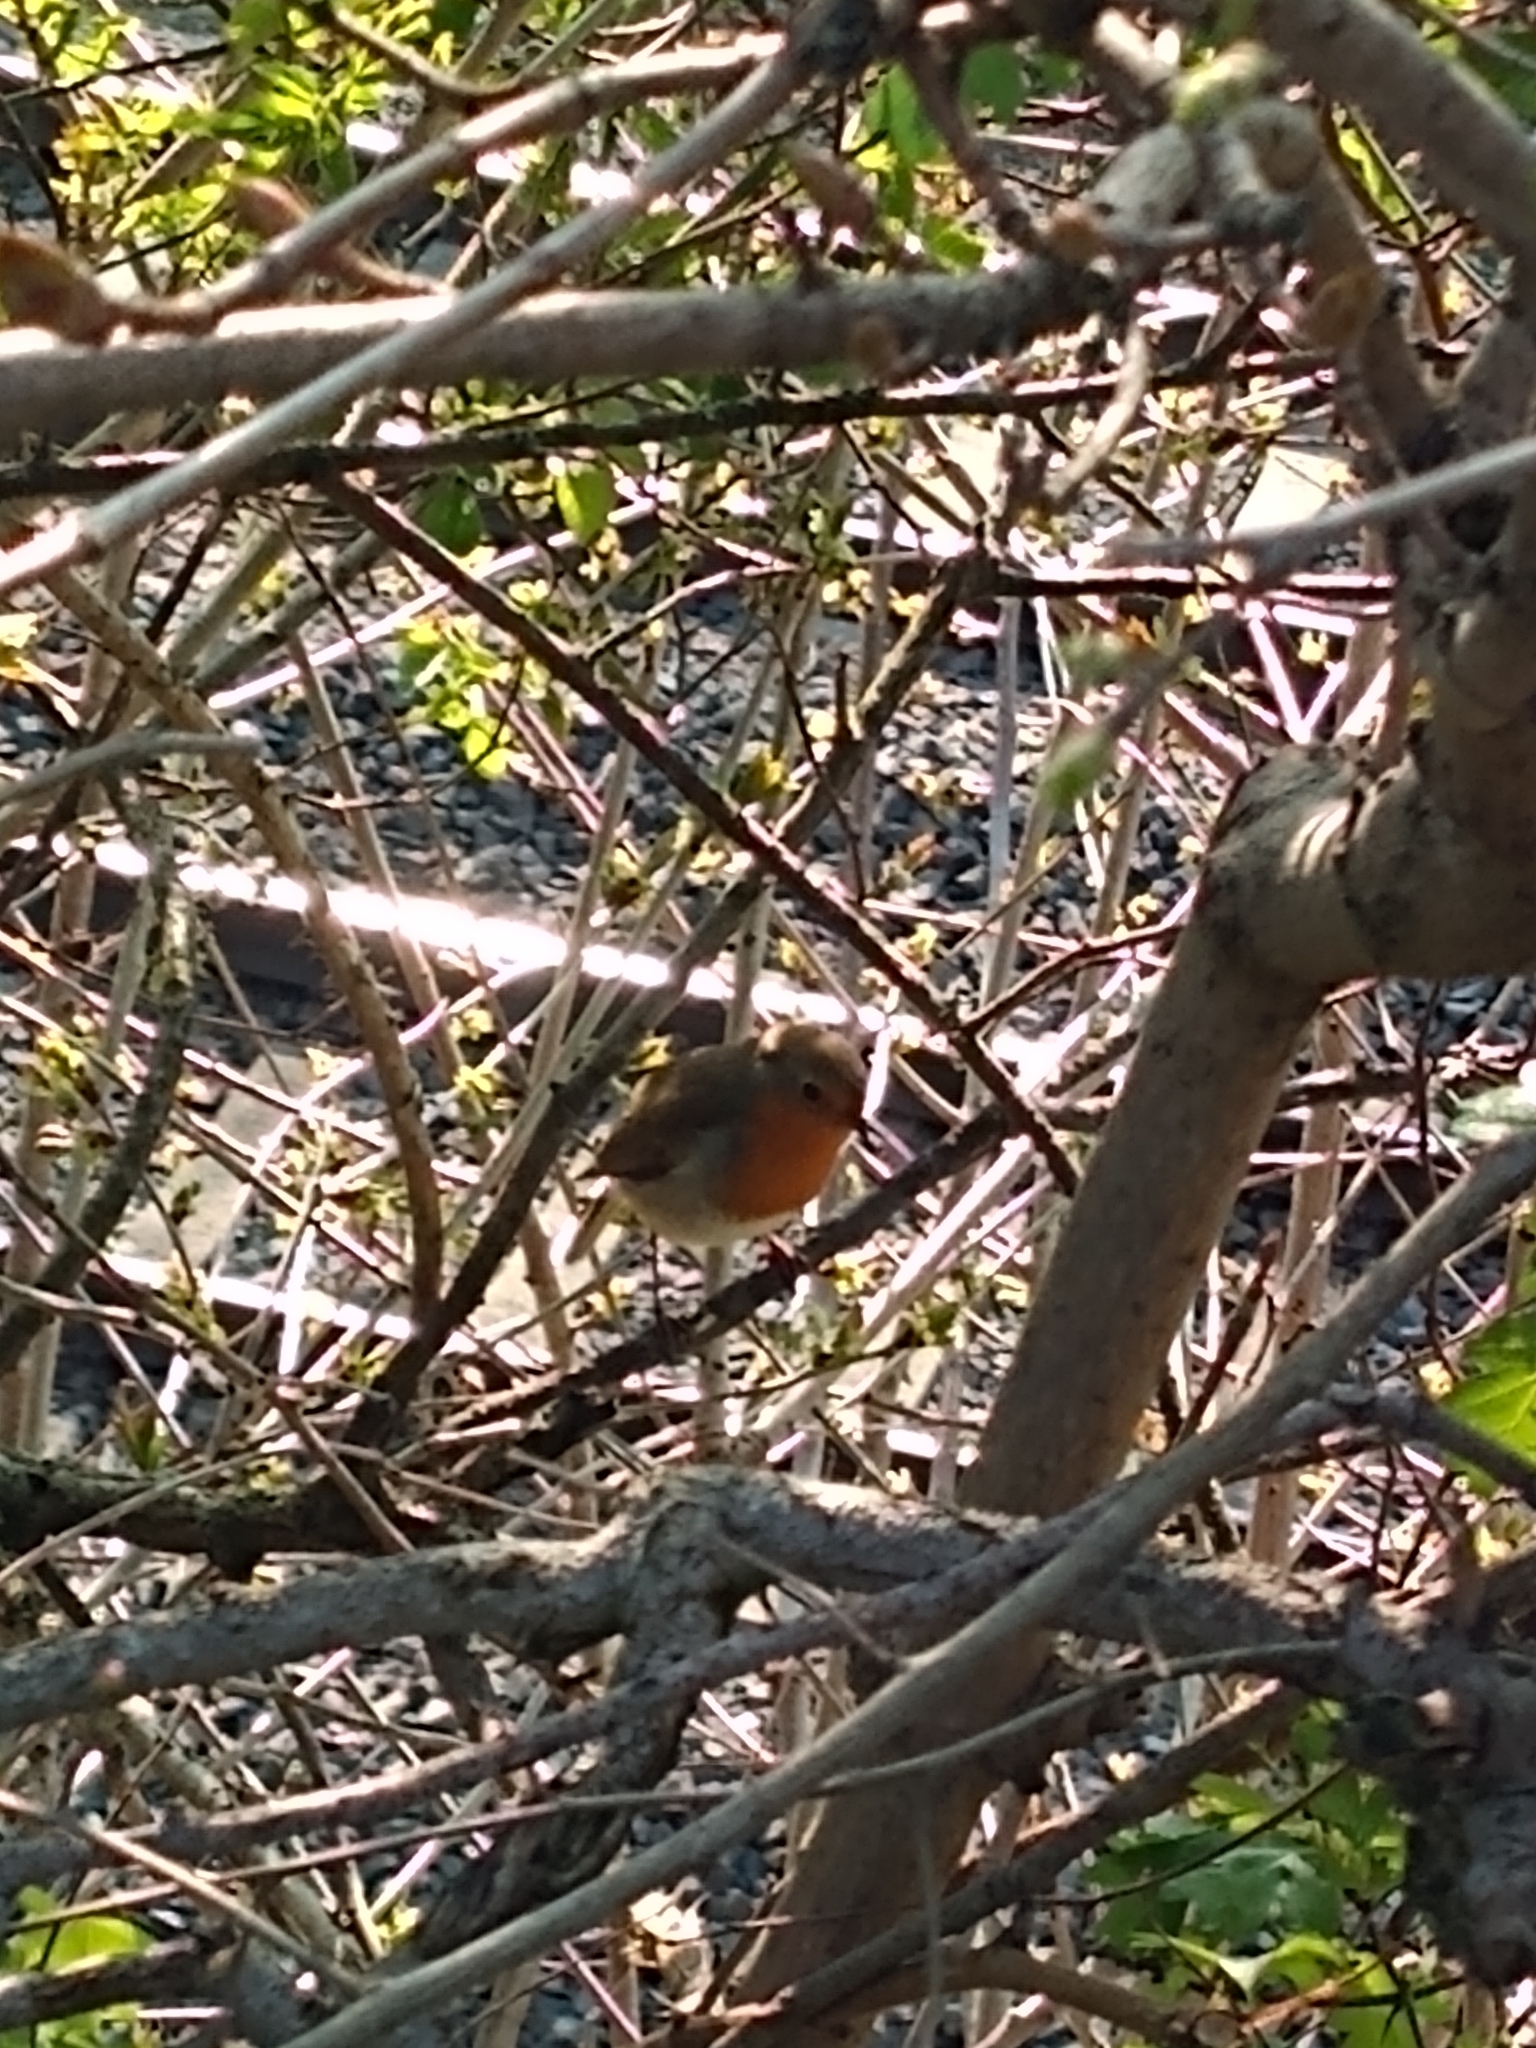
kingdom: Animalia
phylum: Chordata
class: Aves
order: Passeriformes
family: Muscicapidae
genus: Erithacus
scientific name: Erithacus rubecula
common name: European robin
